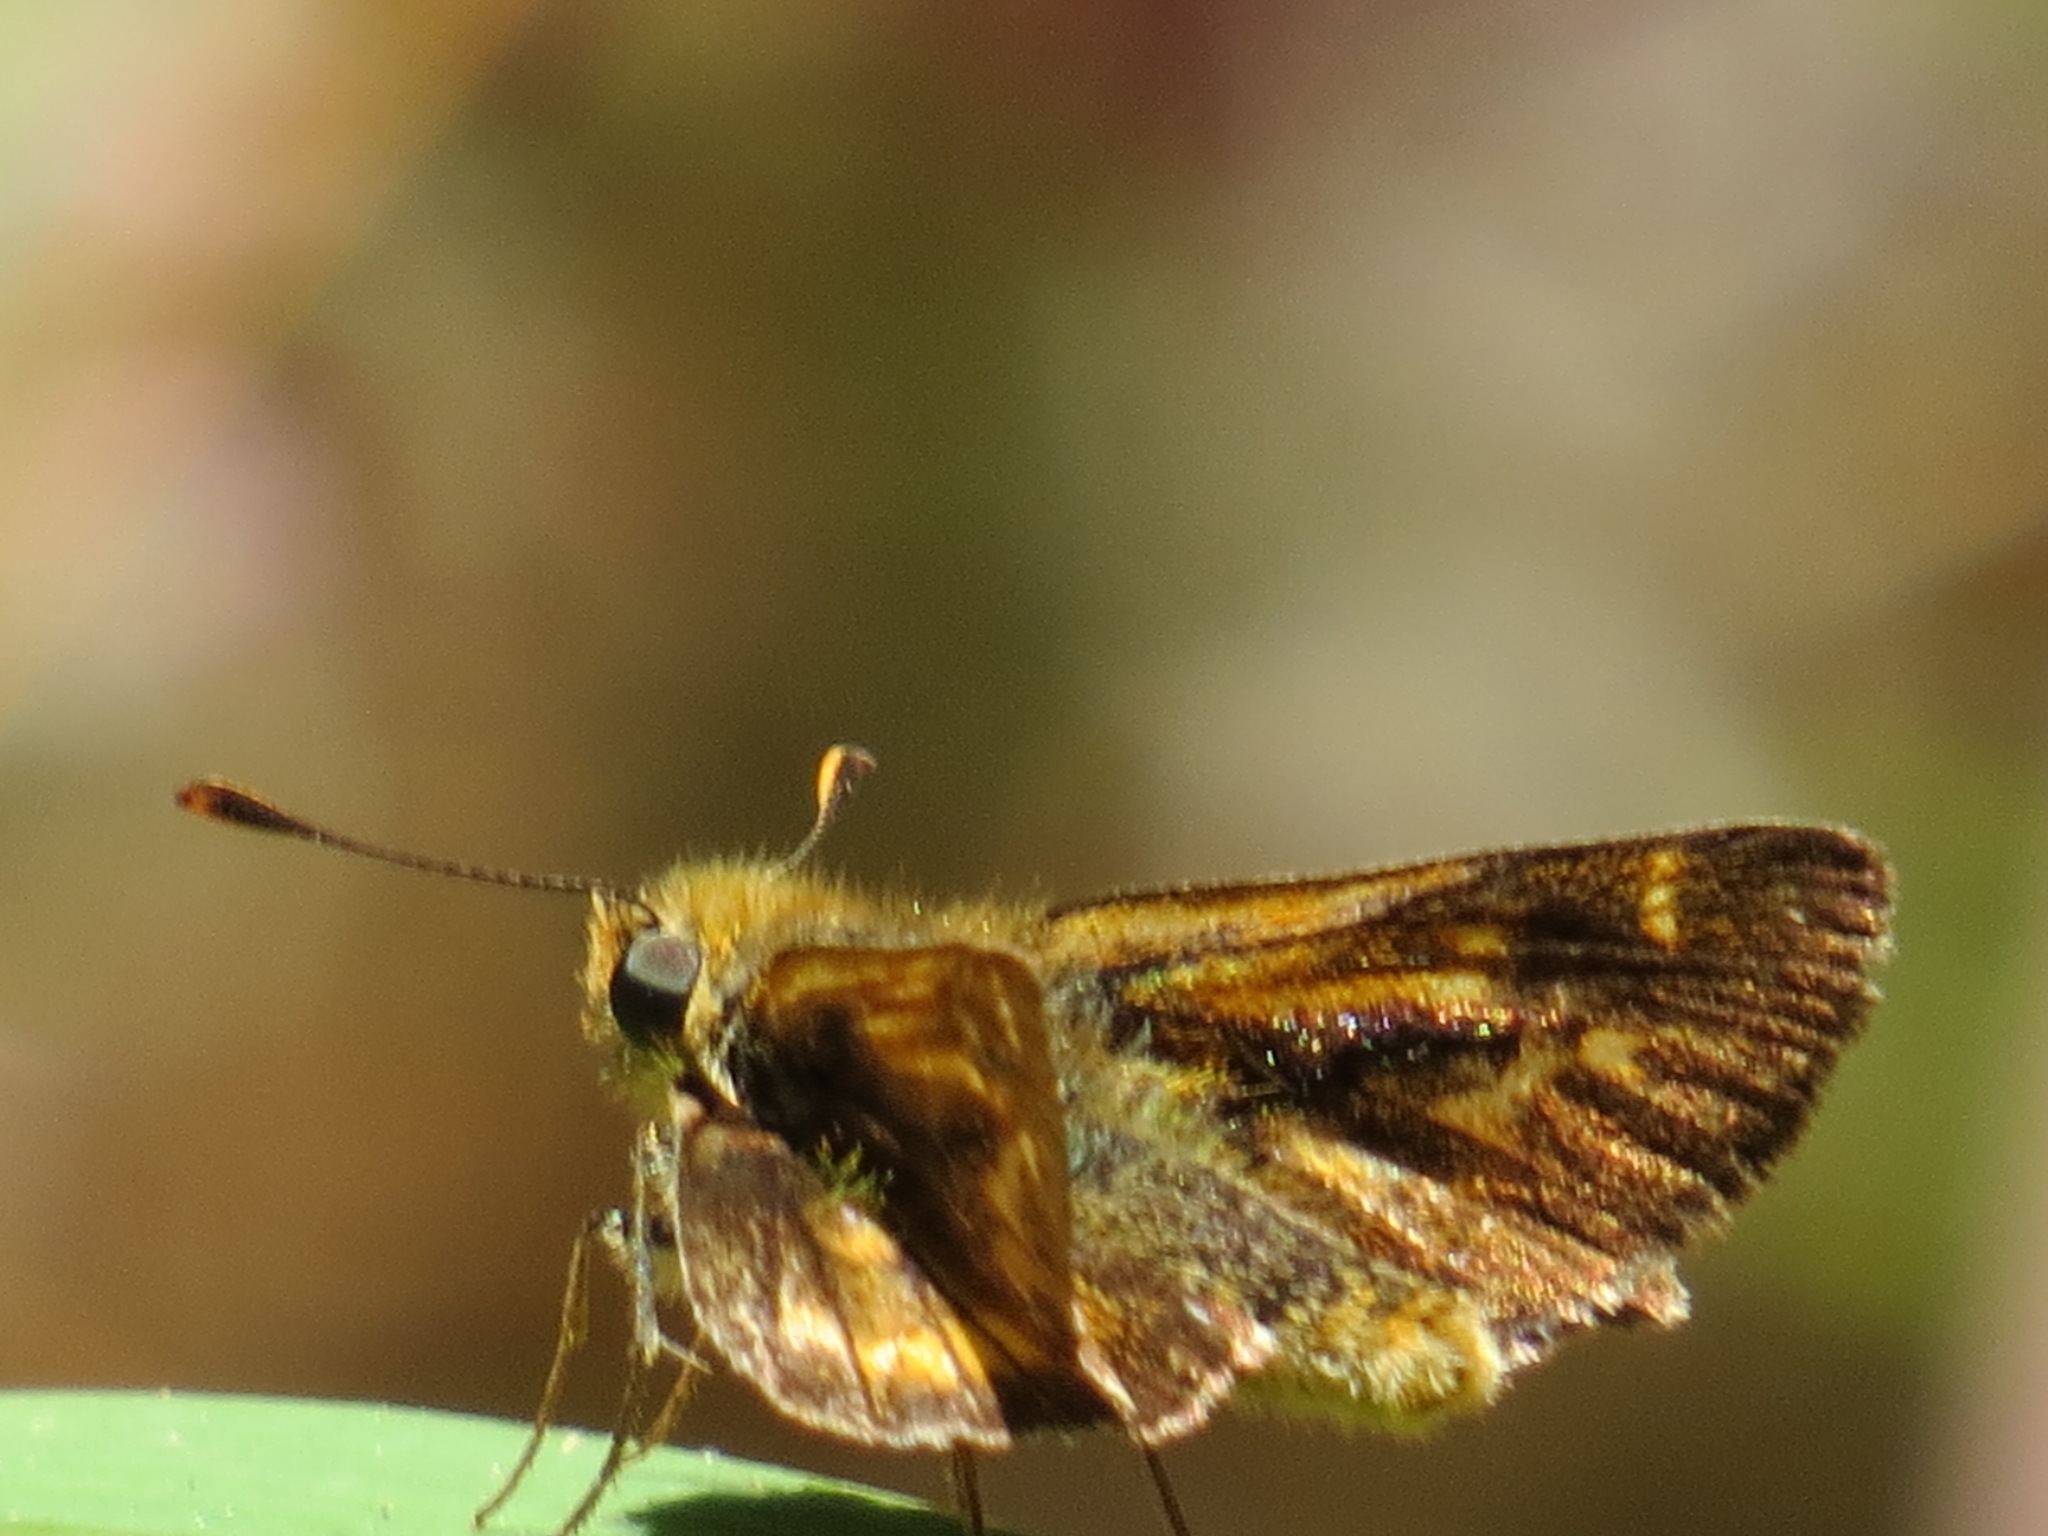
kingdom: Animalia
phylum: Arthropoda
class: Insecta
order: Lepidoptera
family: Hesperiidae
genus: Ochlodes
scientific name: Ochlodes agricola
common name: Rural skipper
